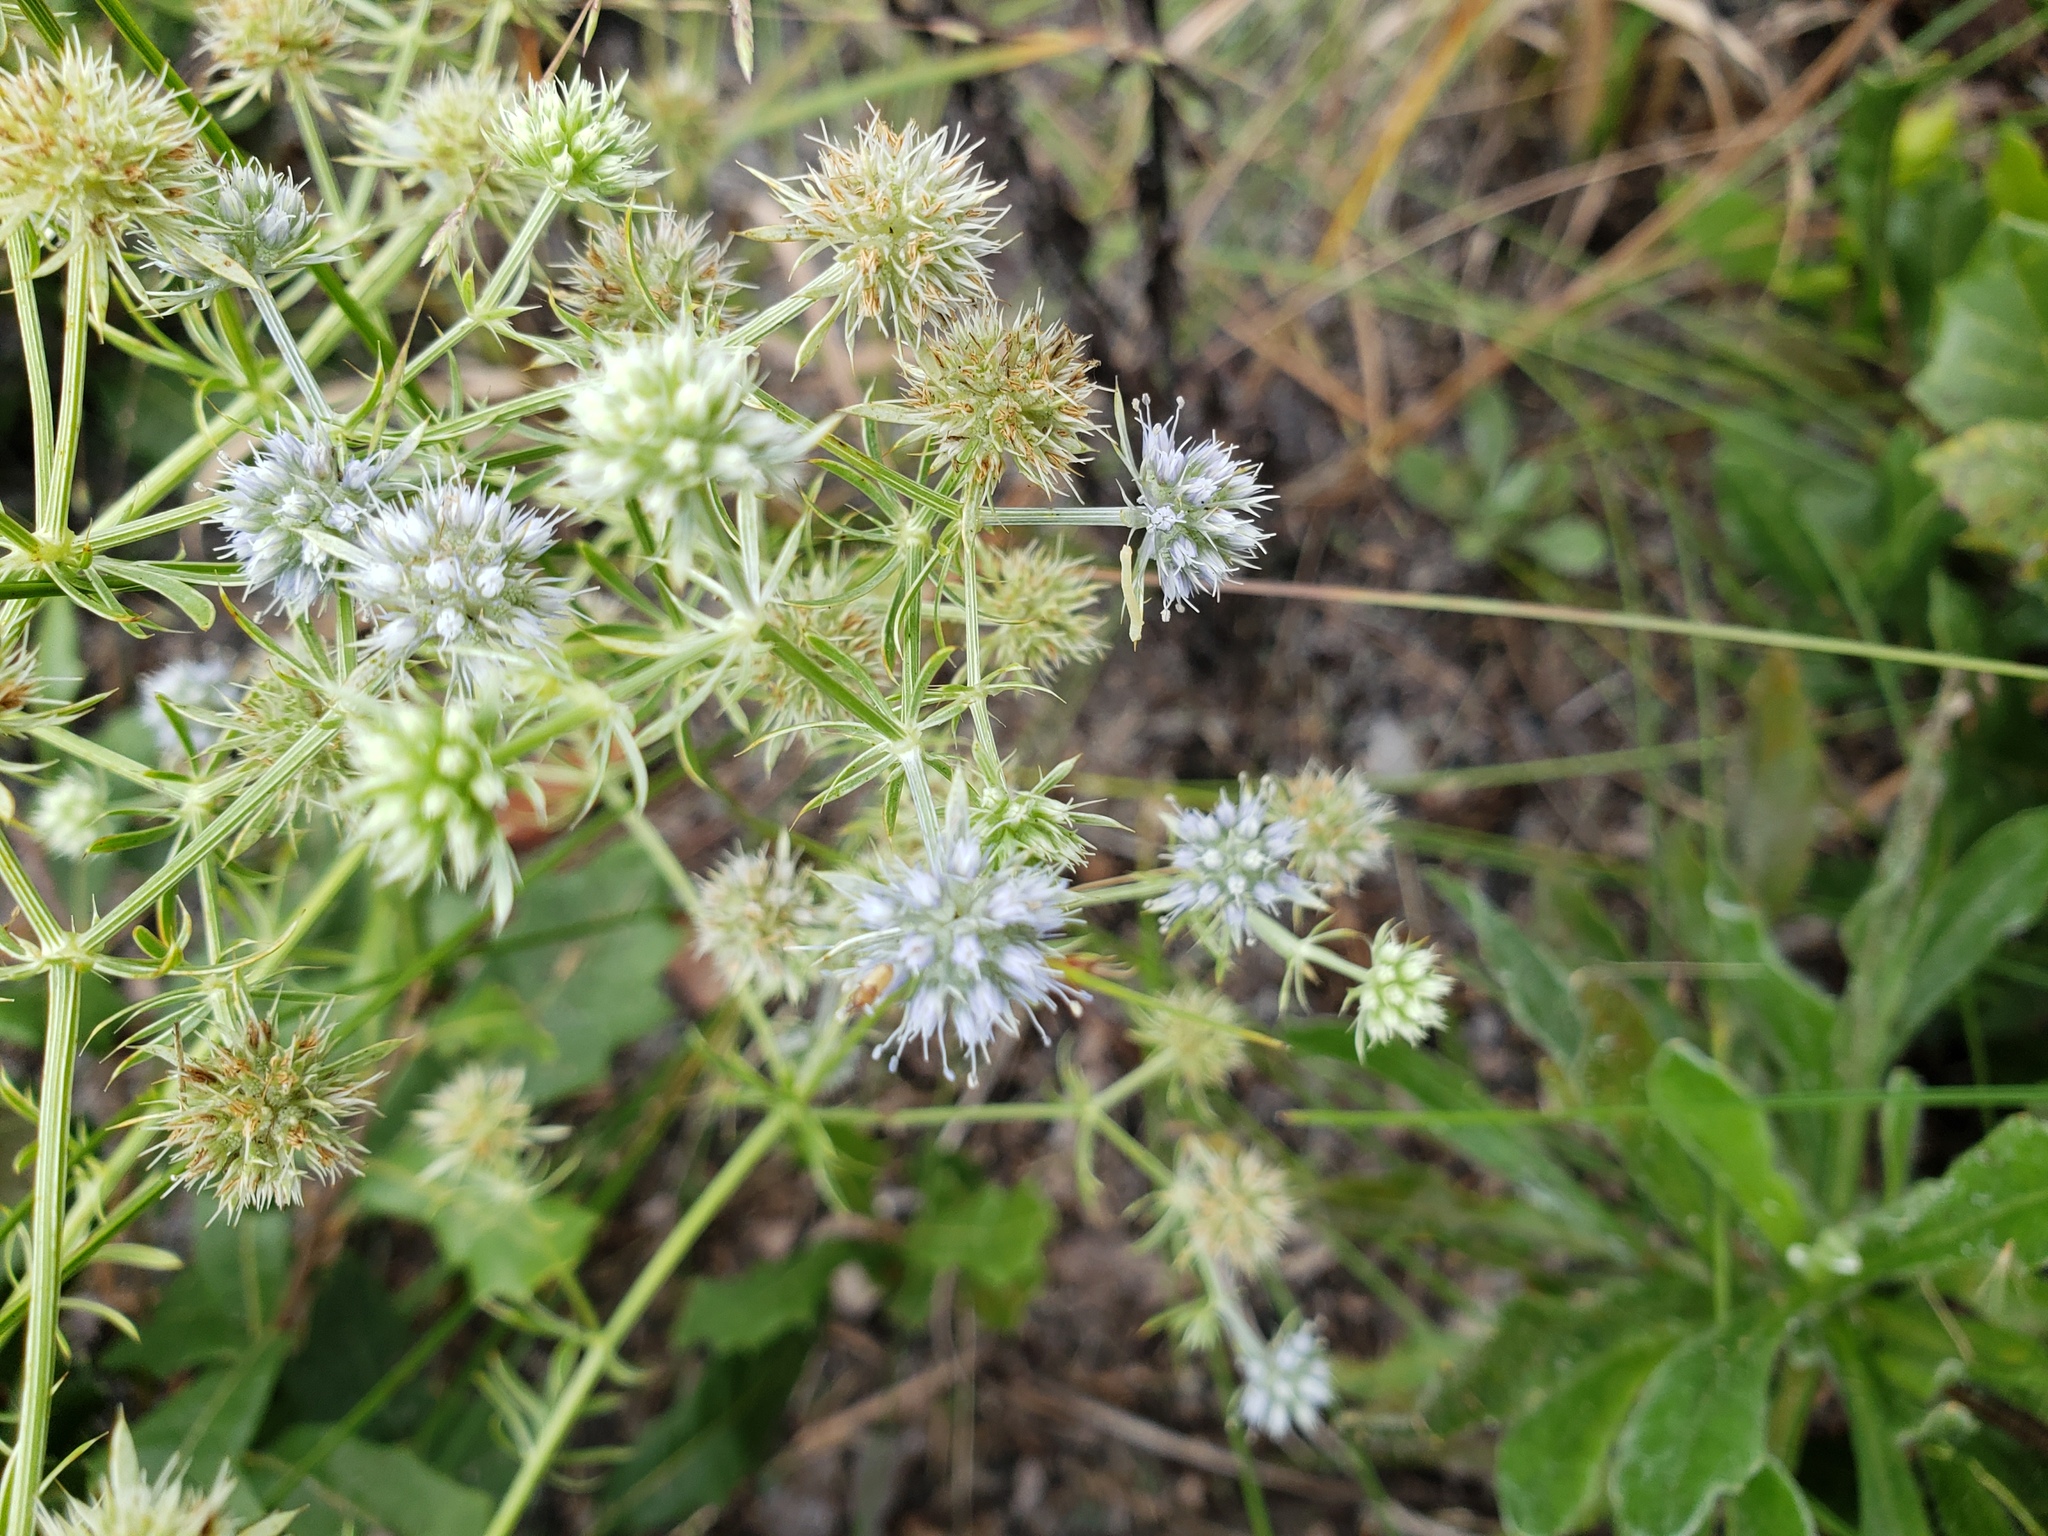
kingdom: Plantae
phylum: Tracheophyta
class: Magnoliopsida
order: Apiales
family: Apiaceae
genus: Eryngium
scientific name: Eryngium aromaticum
